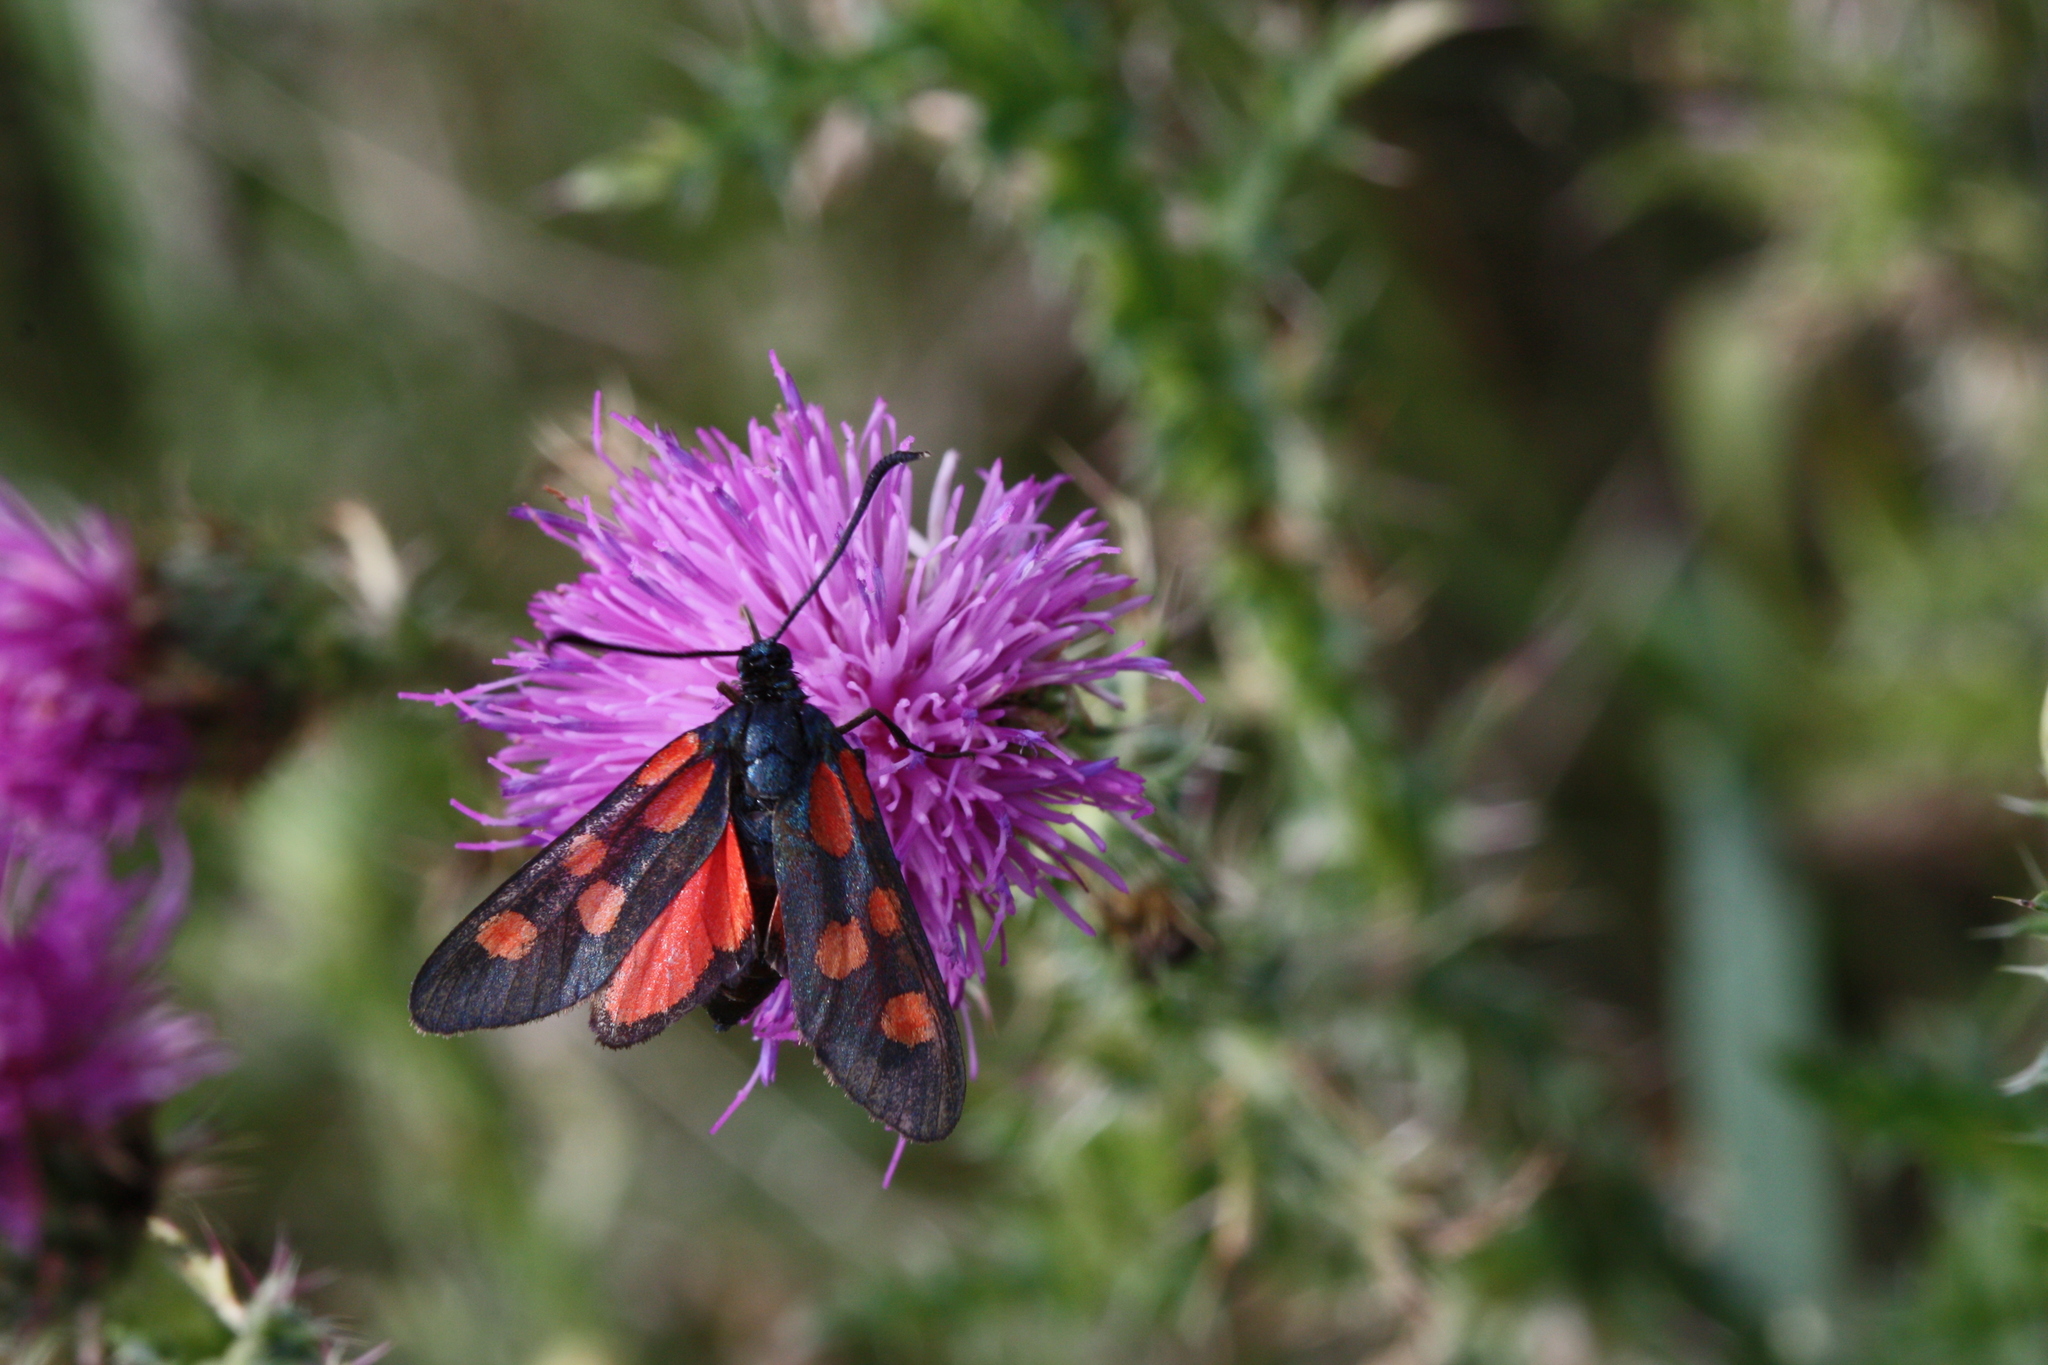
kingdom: Animalia
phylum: Arthropoda
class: Insecta
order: Lepidoptera
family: Zygaenidae
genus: Zygaena
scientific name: Zygaena angelicae
